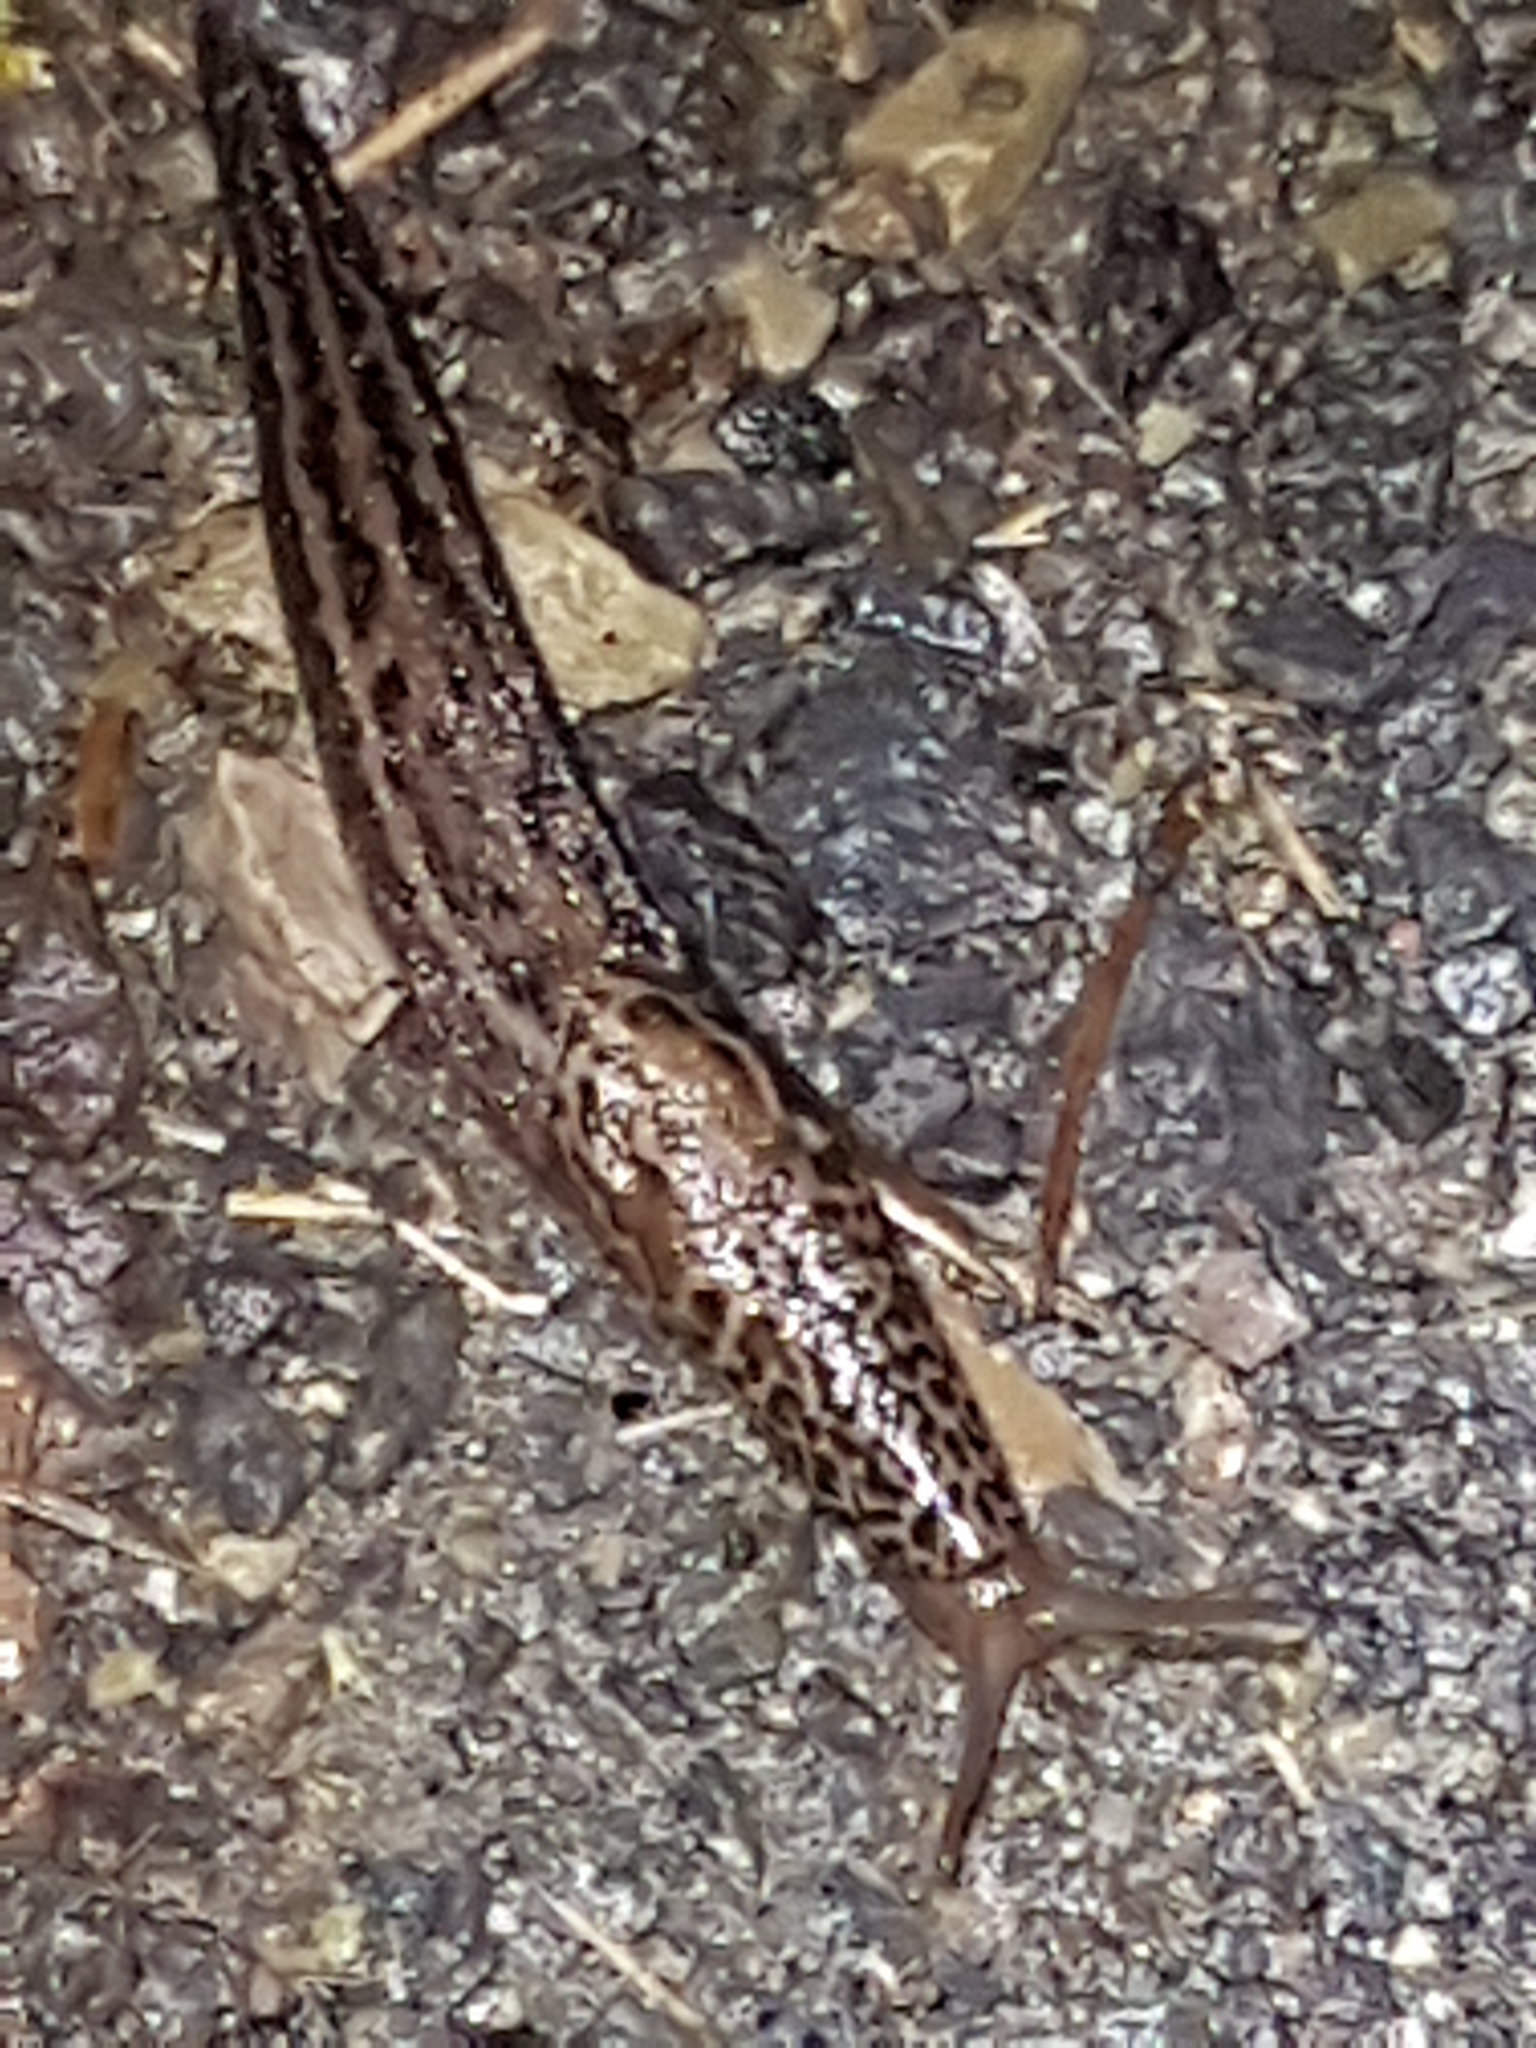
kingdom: Animalia
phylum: Mollusca
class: Gastropoda
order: Stylommatophora
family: Limacidae
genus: Limax
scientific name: Limax maximus
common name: Great grey slug
